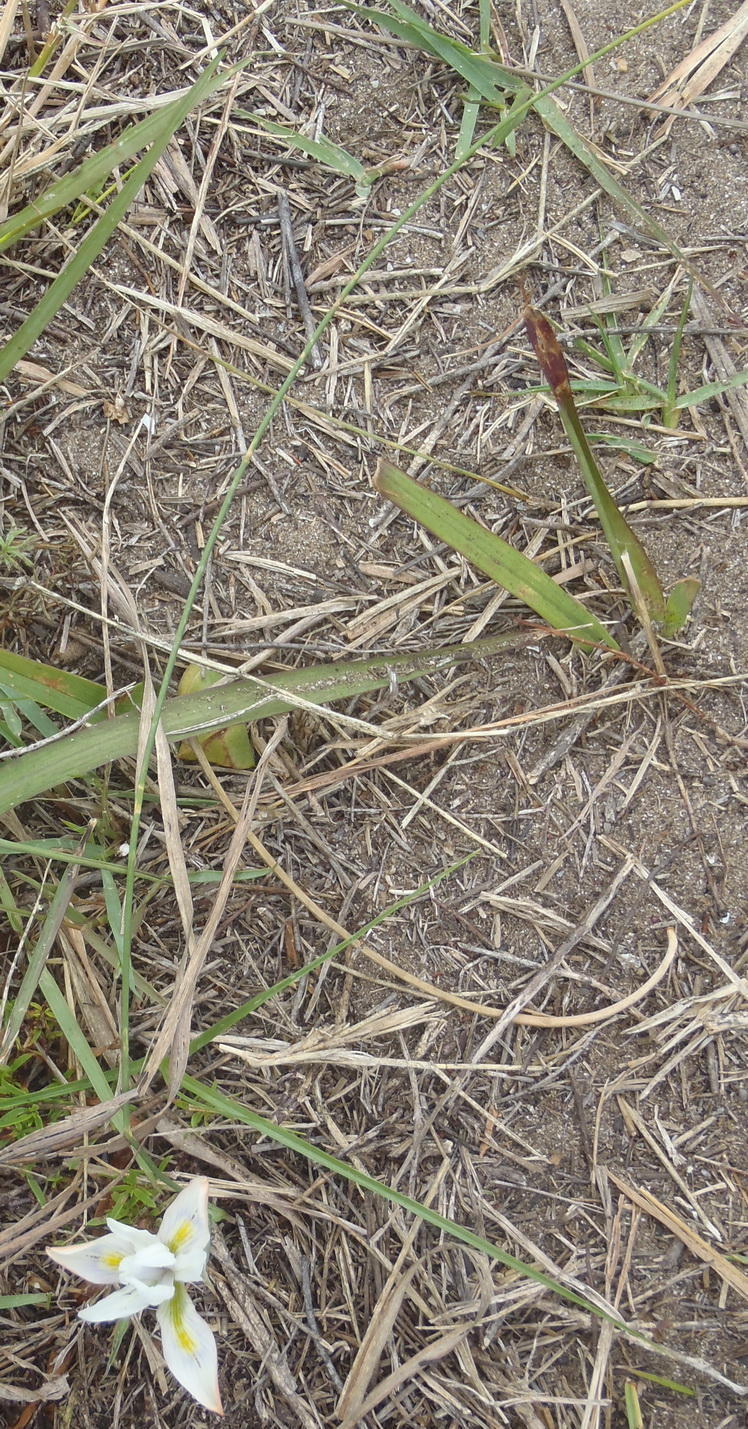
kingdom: Plantae
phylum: Tracheophyta
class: Liliopsida
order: Asparagales
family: Iridaceae
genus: Moraea
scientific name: Moraea fugax
